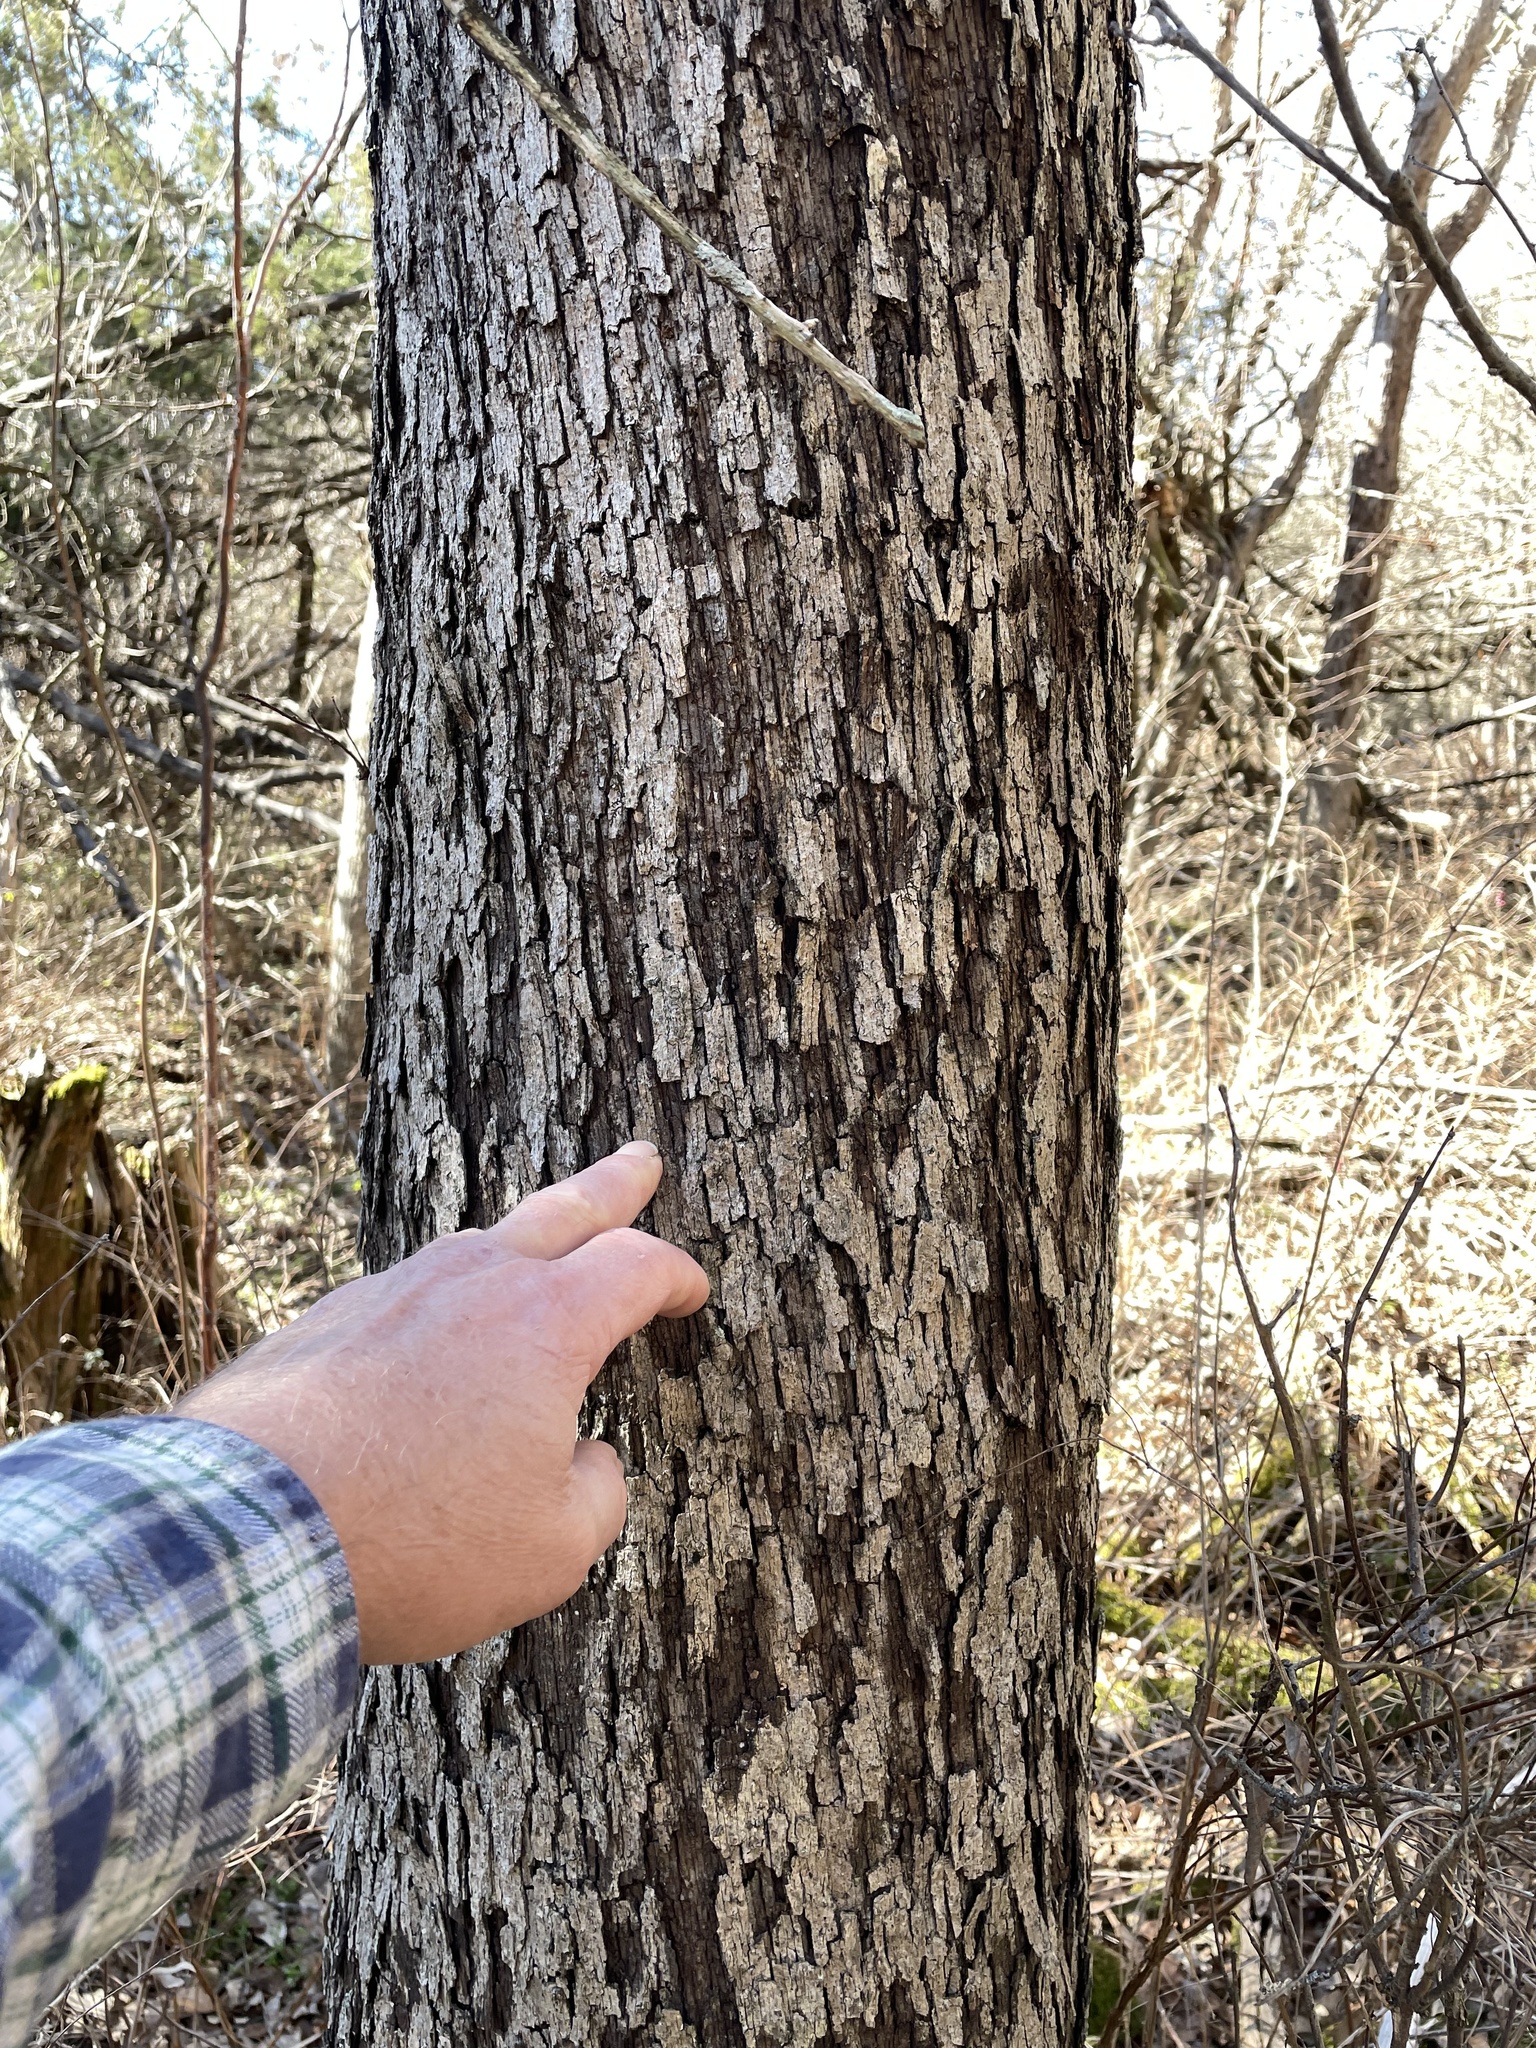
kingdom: Plantae
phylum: Tracheophyta
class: Magnoliopsida
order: Fagales
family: Fagaceae
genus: Quercus
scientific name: Quercus sinuata
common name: Durand oak
